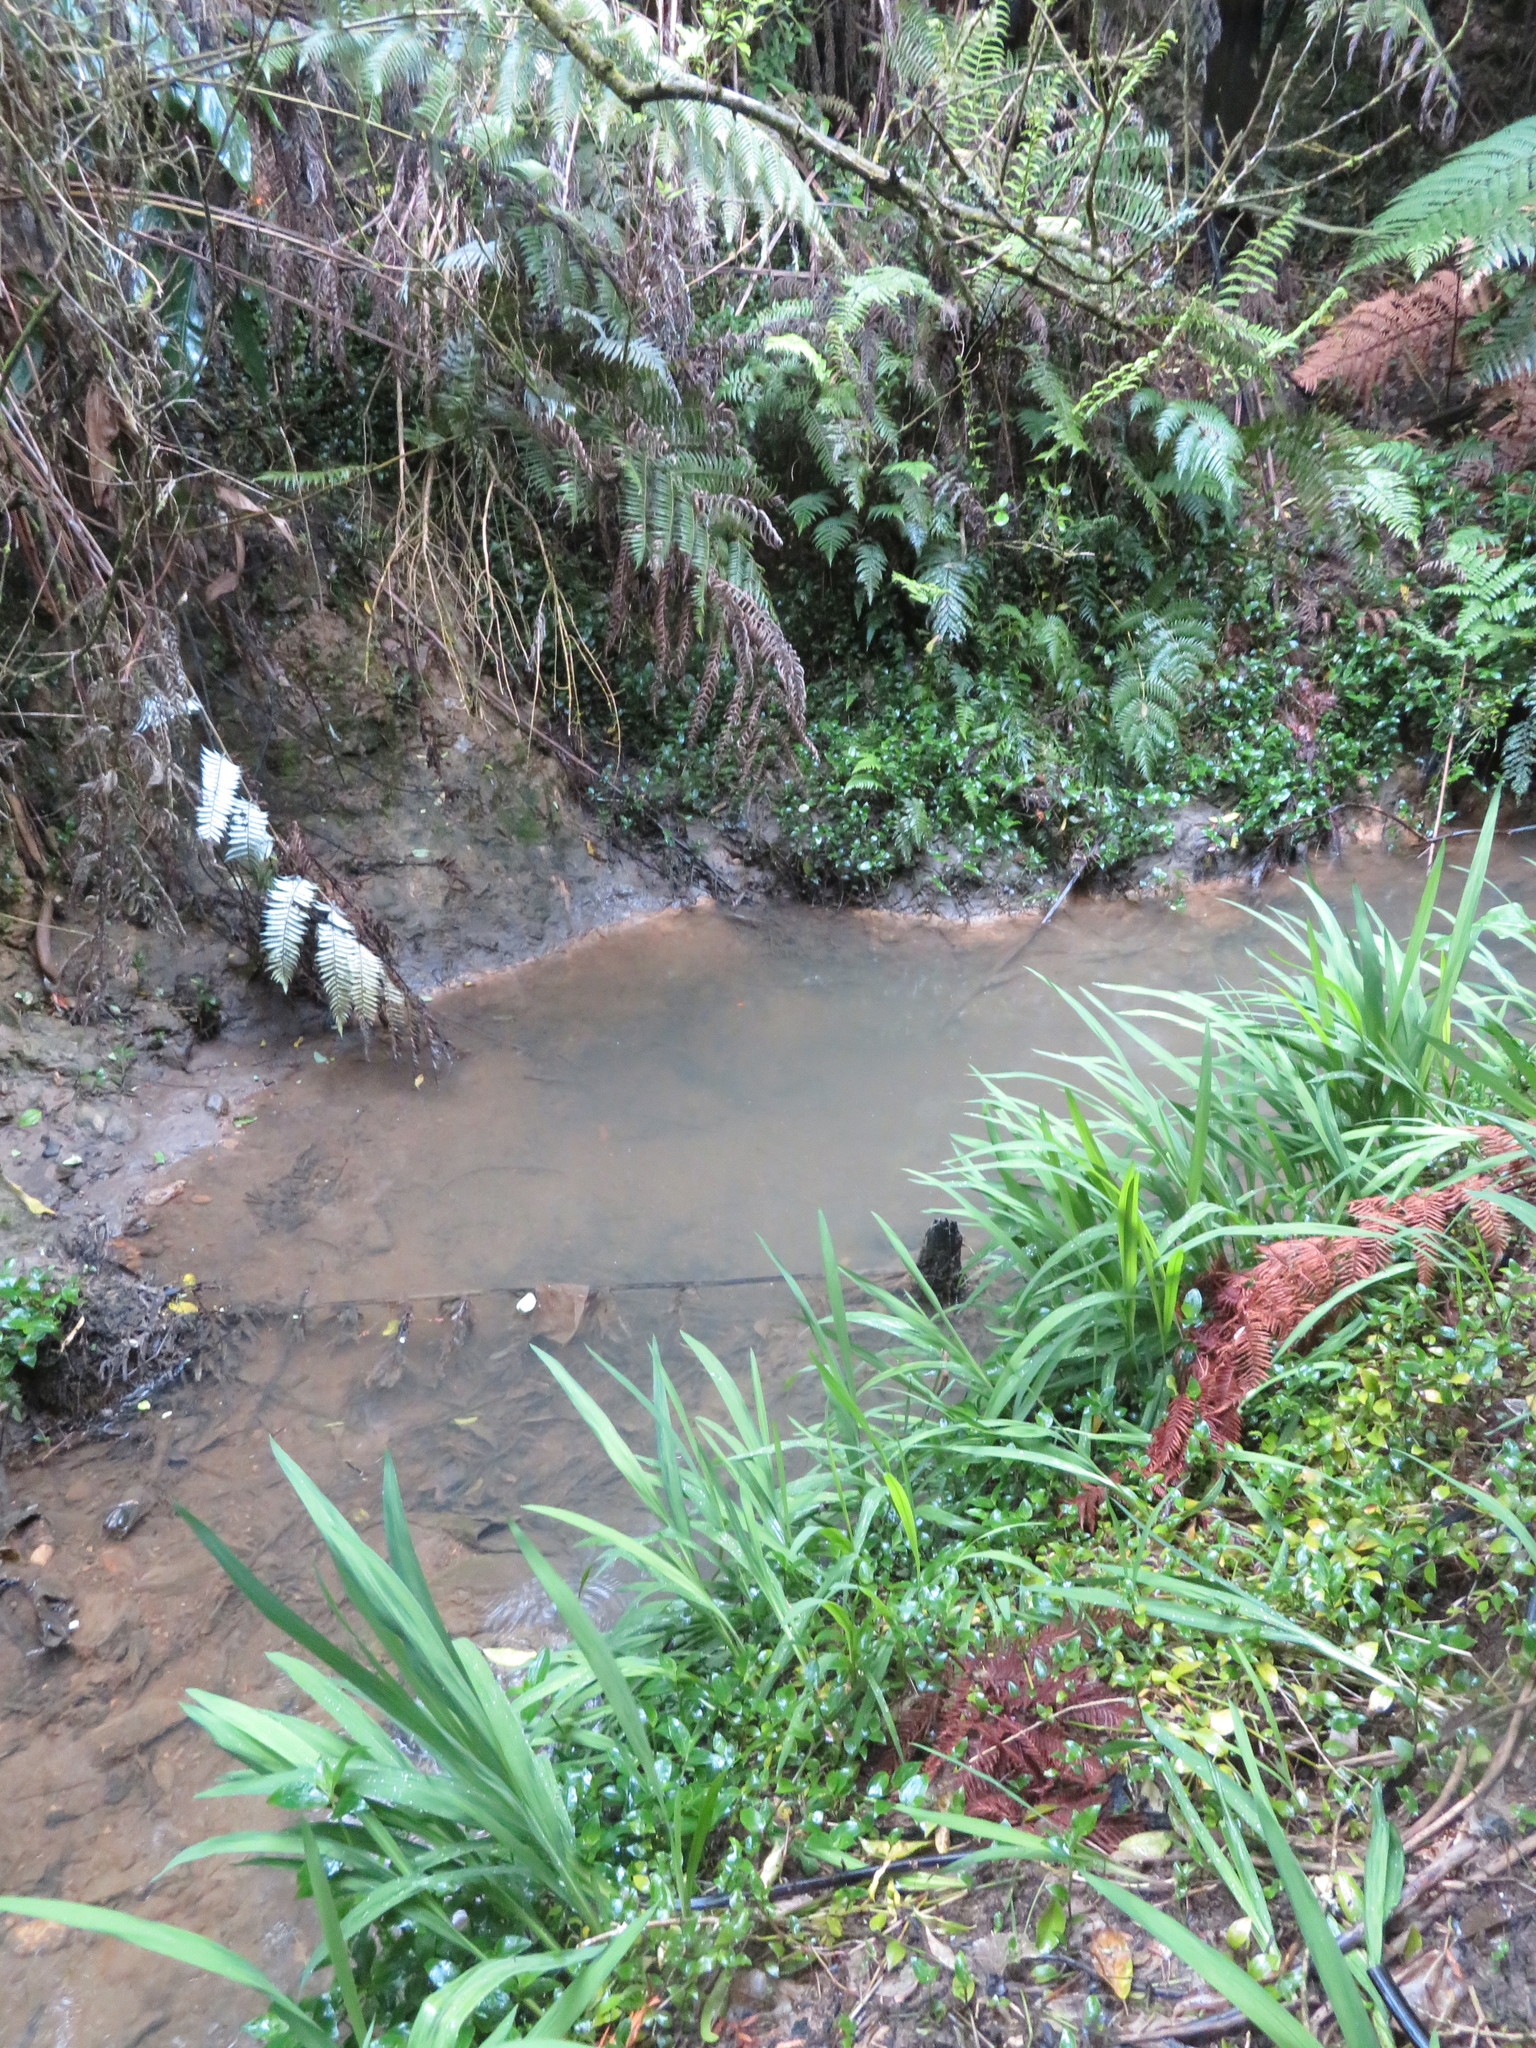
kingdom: Plantae
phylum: Tracheophyta
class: Liliopsida
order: Commelinales
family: Commelinaceae
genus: Tradescantia
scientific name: Tradescantia fluminensis
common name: Wandering-jew
